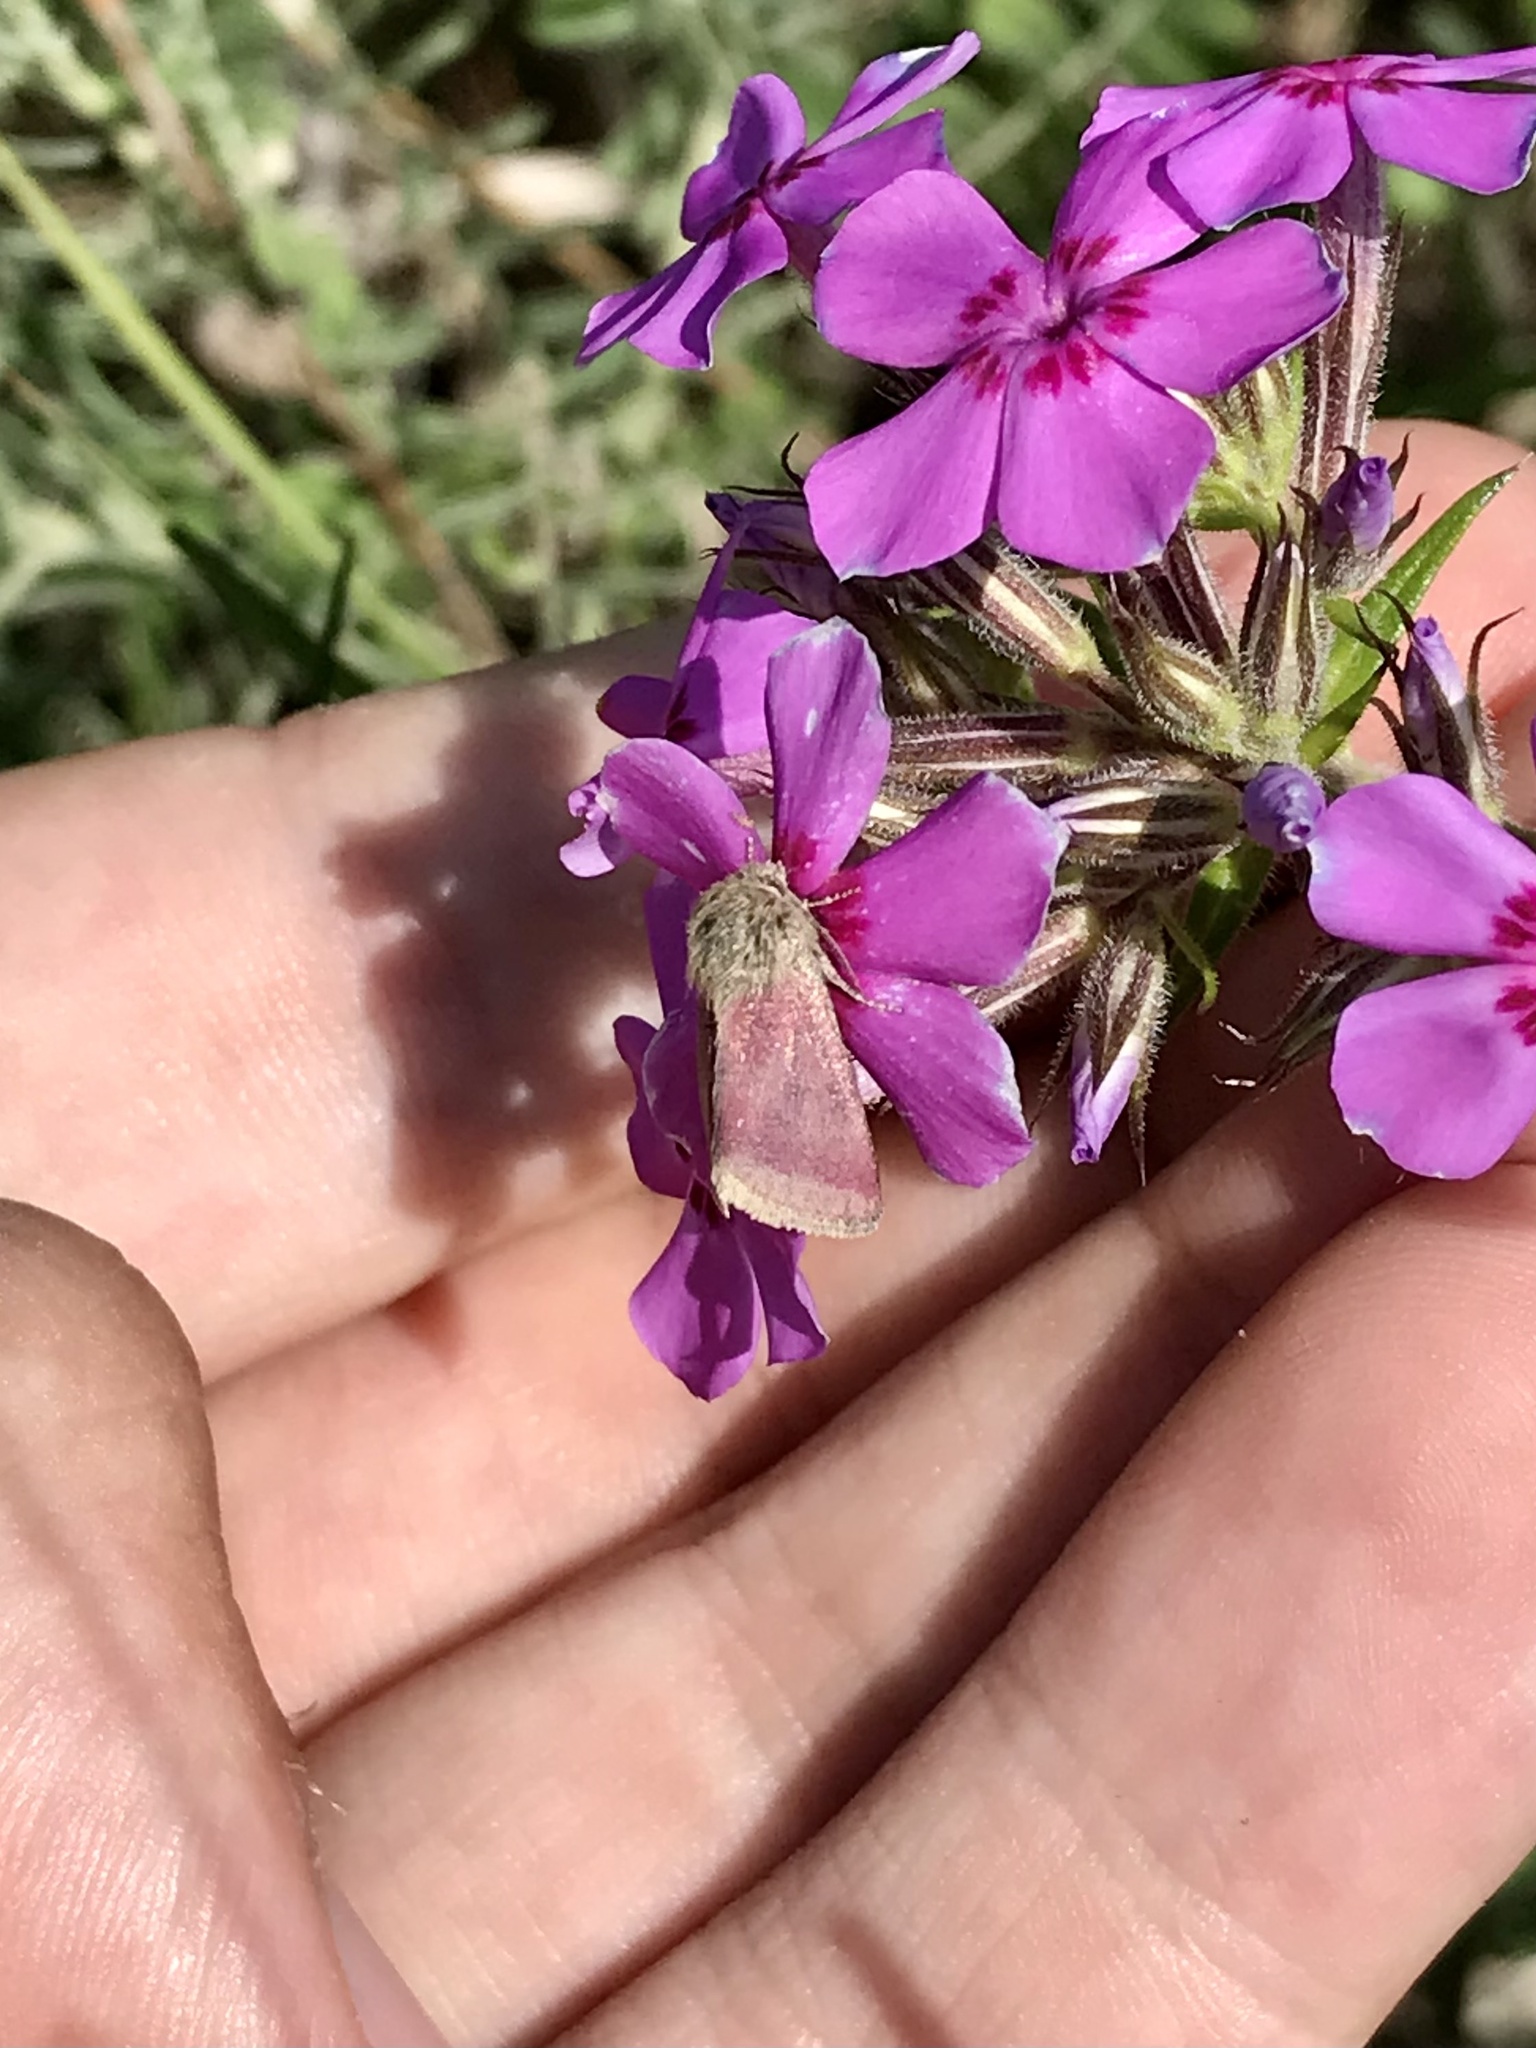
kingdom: Animalia
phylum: Arthropoda
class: Insecta
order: Lepidoptera
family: Noctuidae
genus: Schinia
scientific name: Schinia indiana
